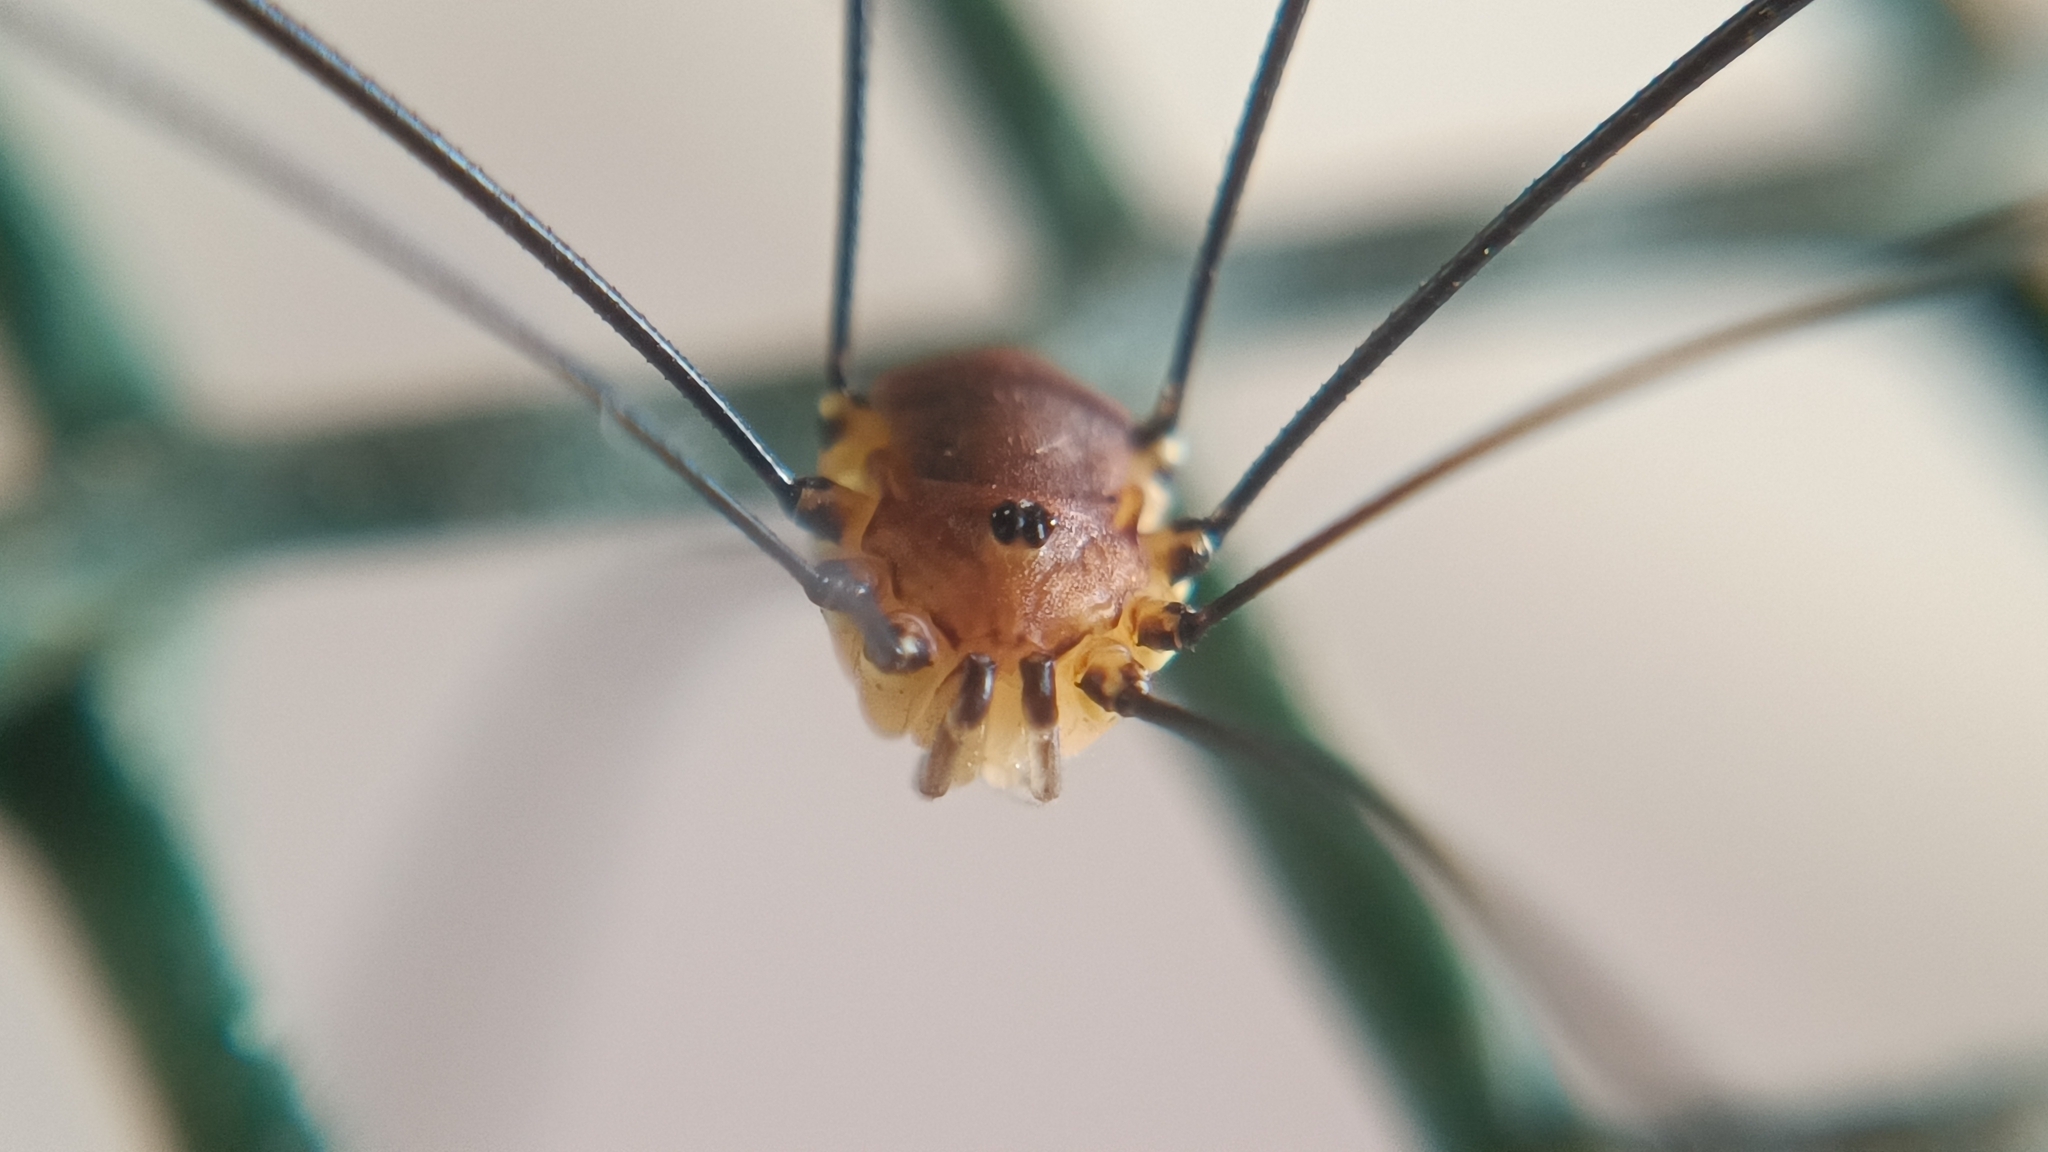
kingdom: Animalia
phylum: Arthropoda
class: Arachnida
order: Opiliones
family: Sclerosomatidae
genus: Leiobunum
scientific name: Leiobunum rotundum
